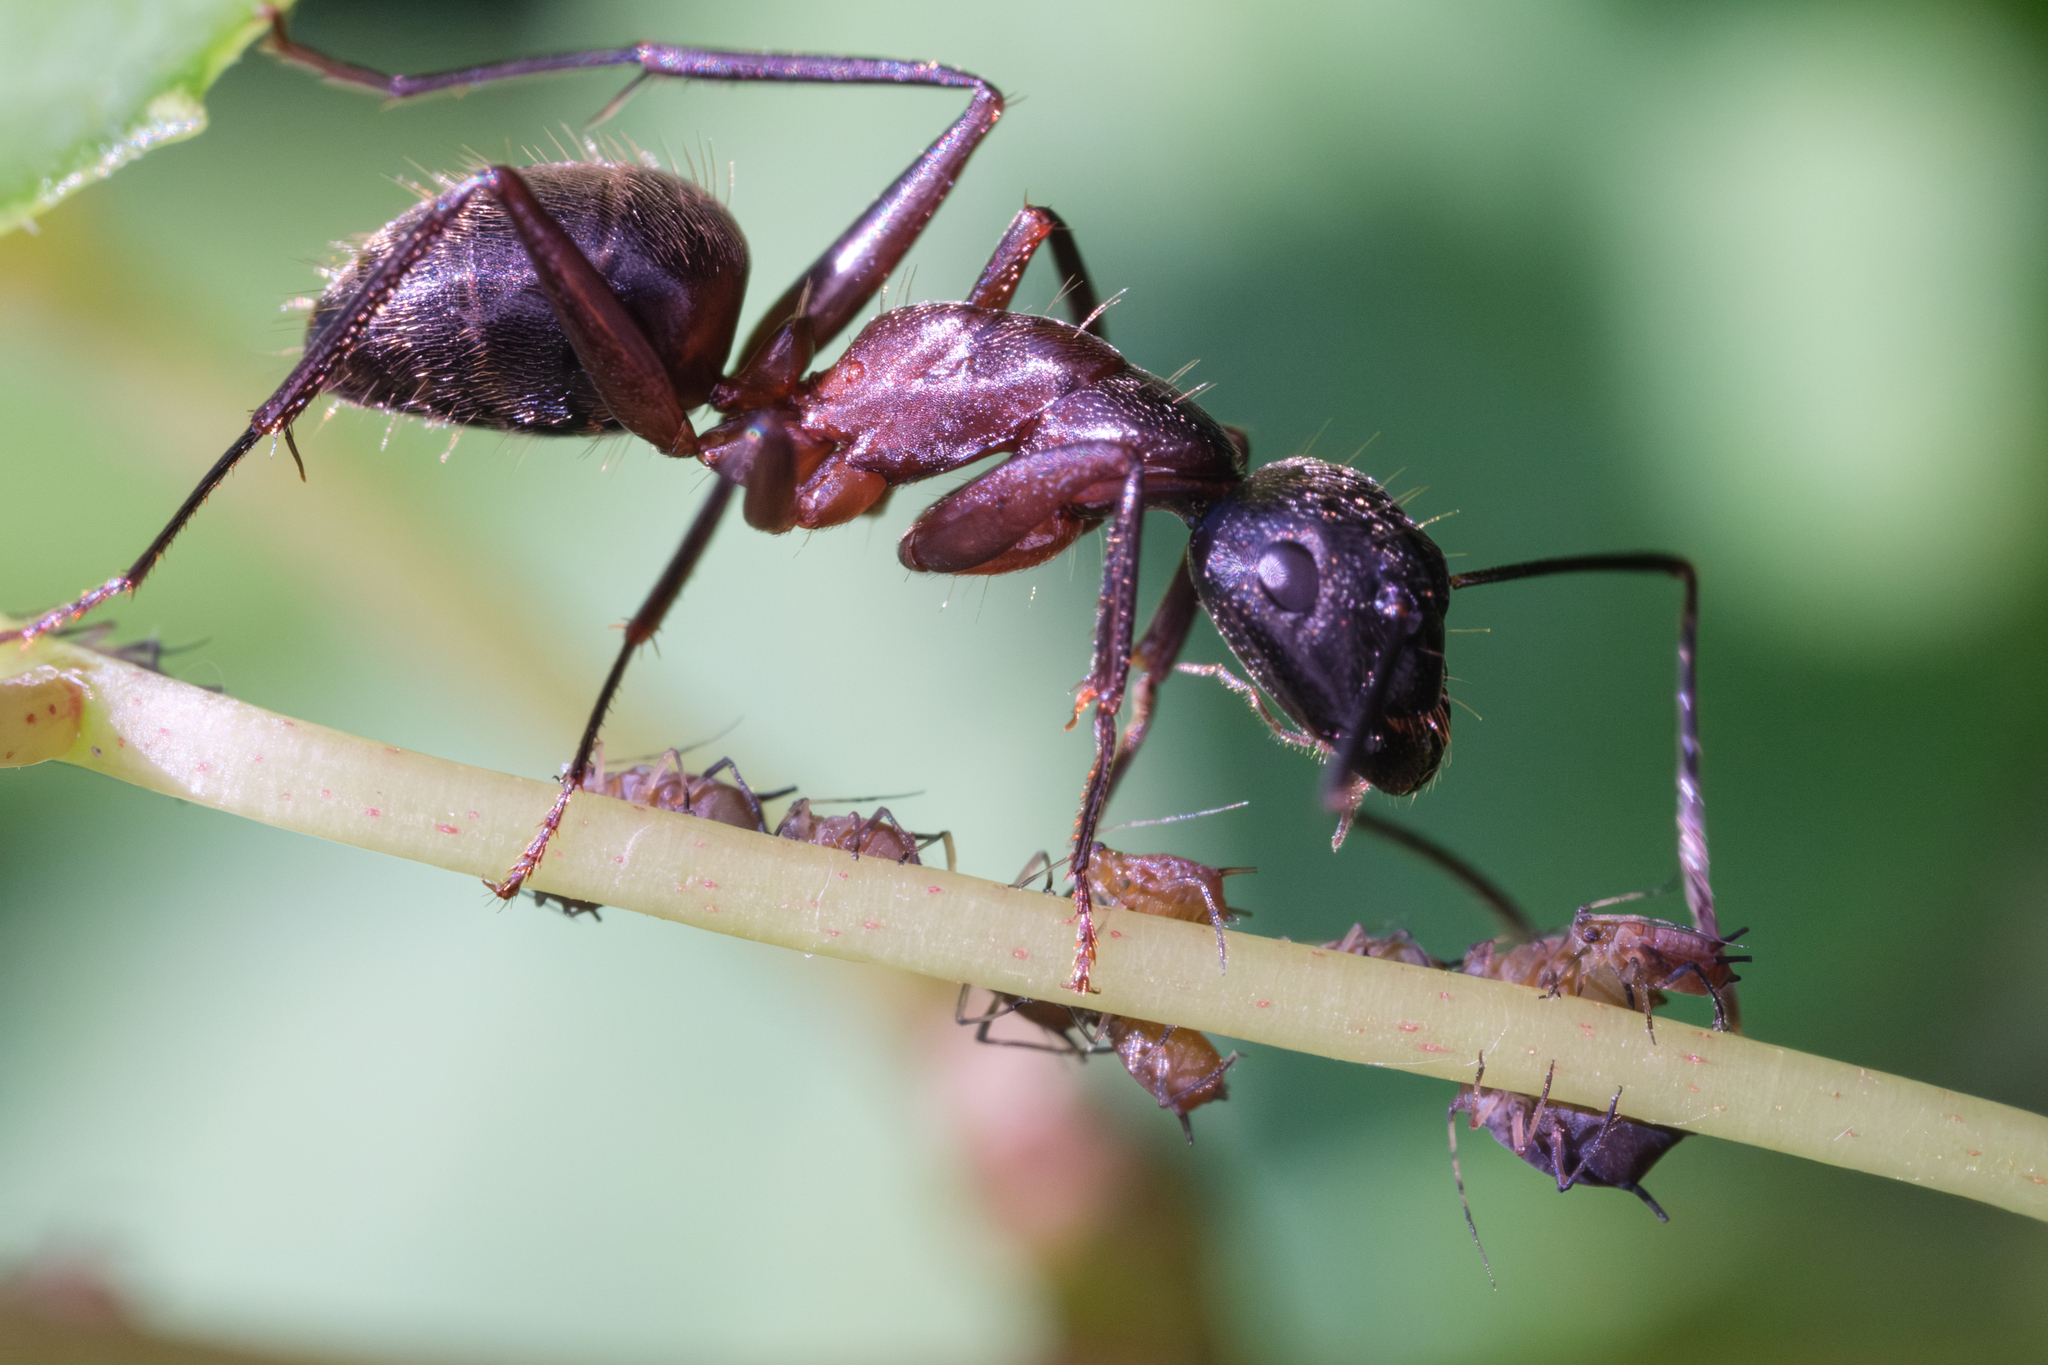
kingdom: Animalia
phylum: Arthropoda
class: Insecta
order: Hymenoptera
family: Formicidae
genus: Camponotus
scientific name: Camponotus chromaiodes
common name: Red carpenter ant
